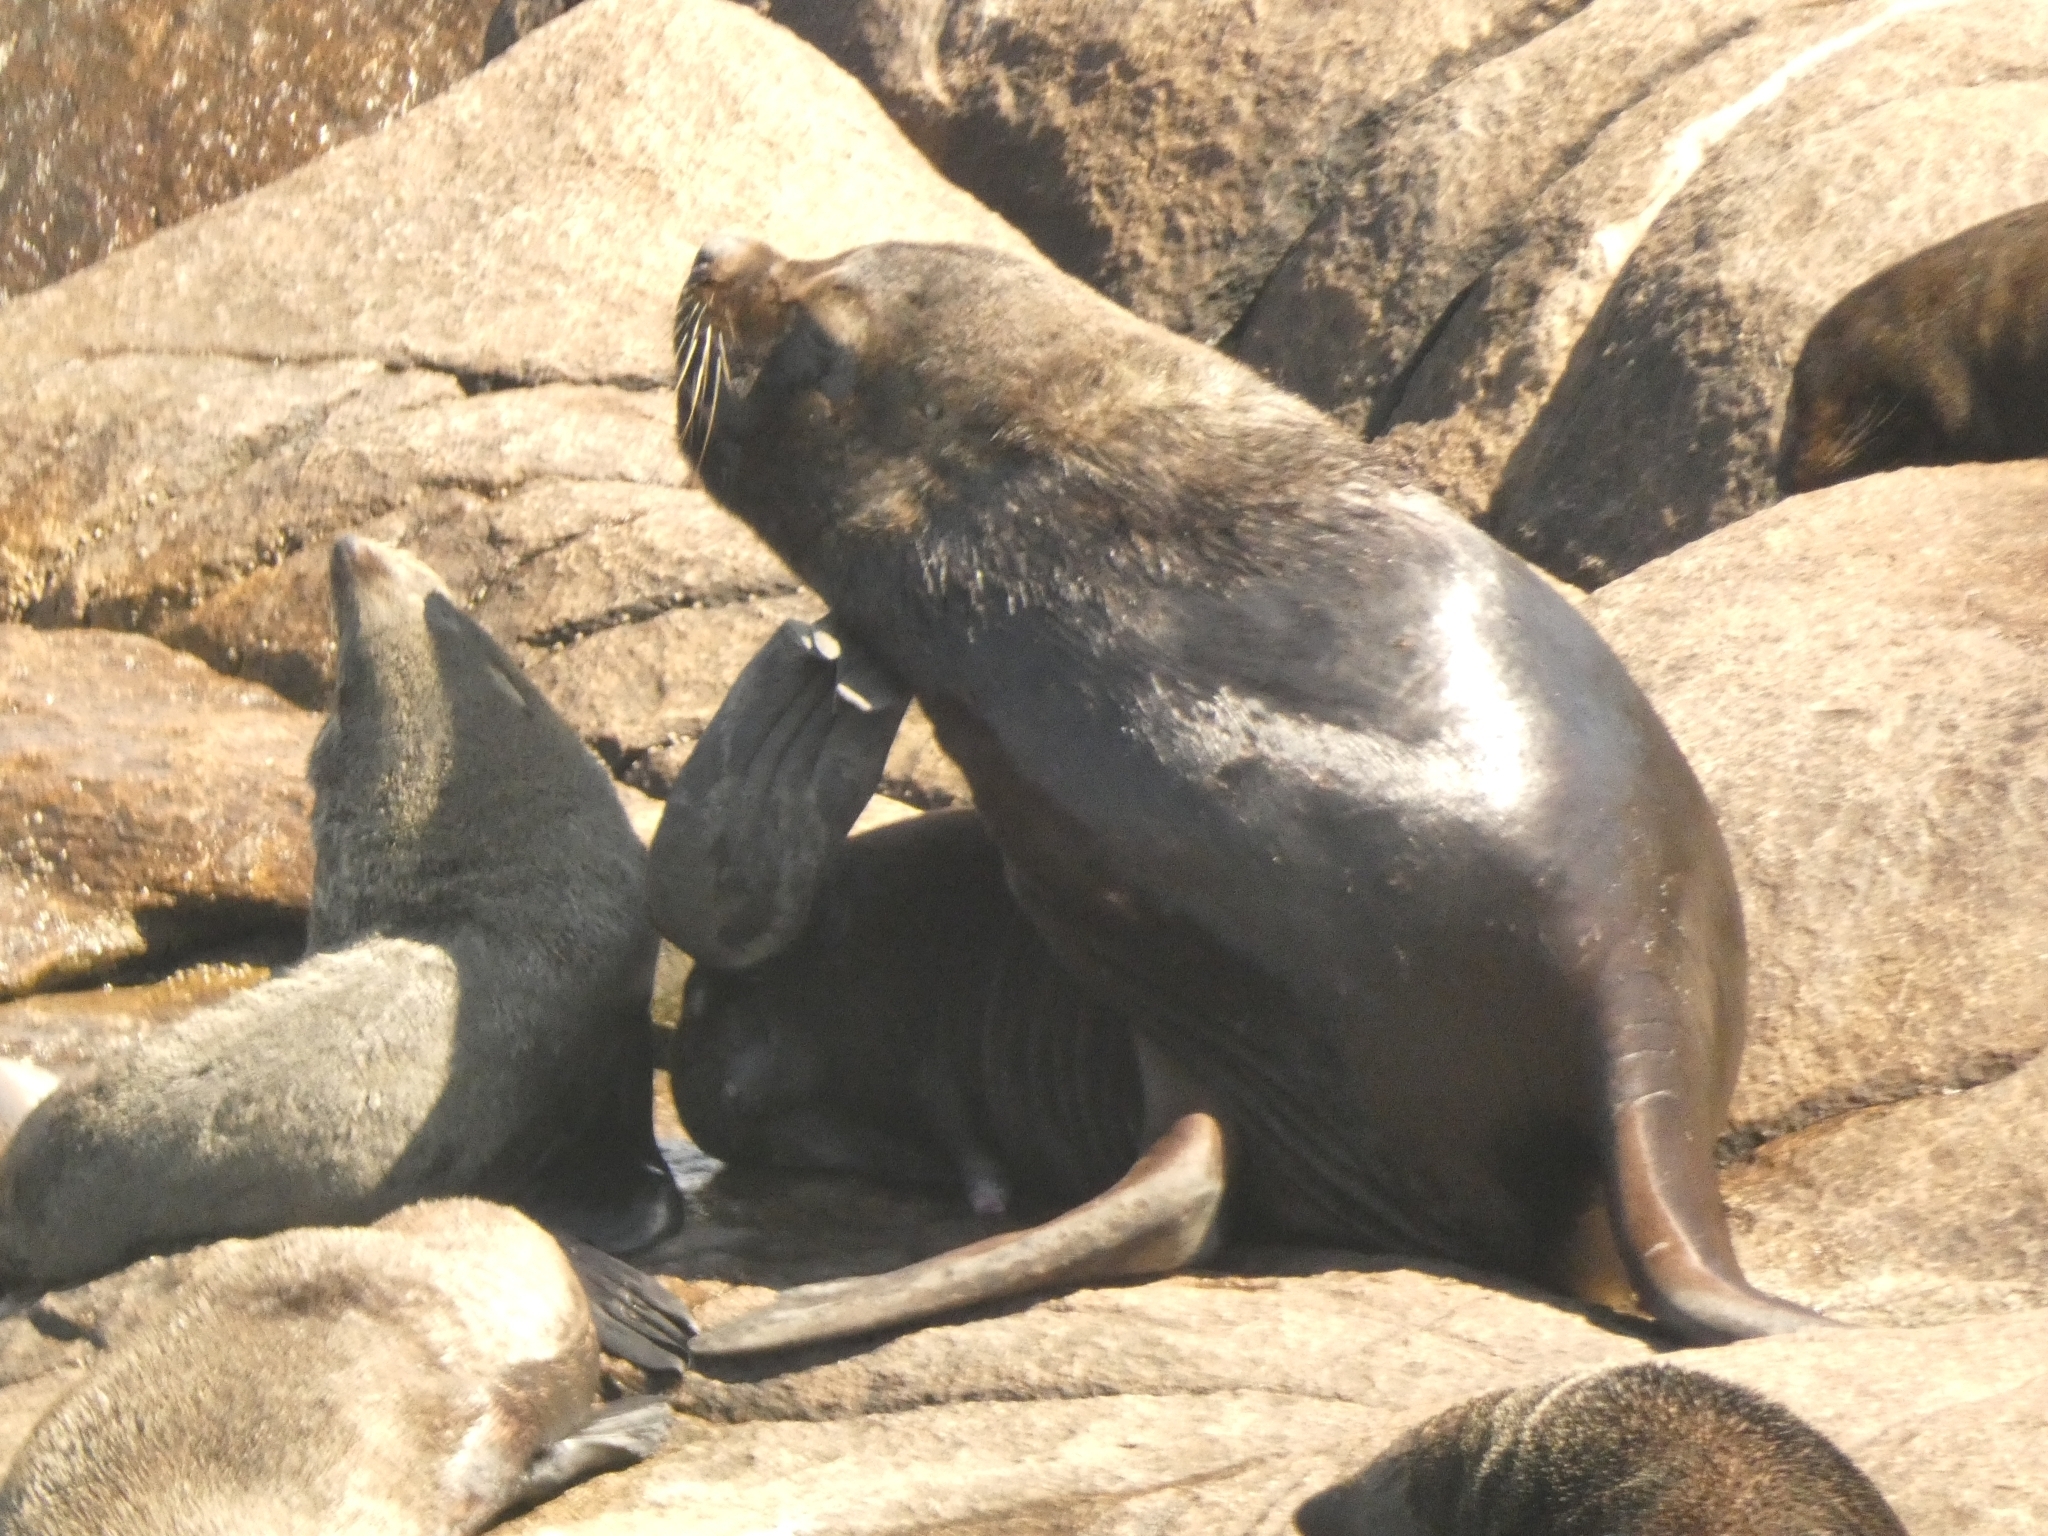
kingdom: Animalia
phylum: Chordata
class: Mammalia
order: Carnivora
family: Otariidae
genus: Otaria
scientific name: Otaria byronia
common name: South american sea lion
